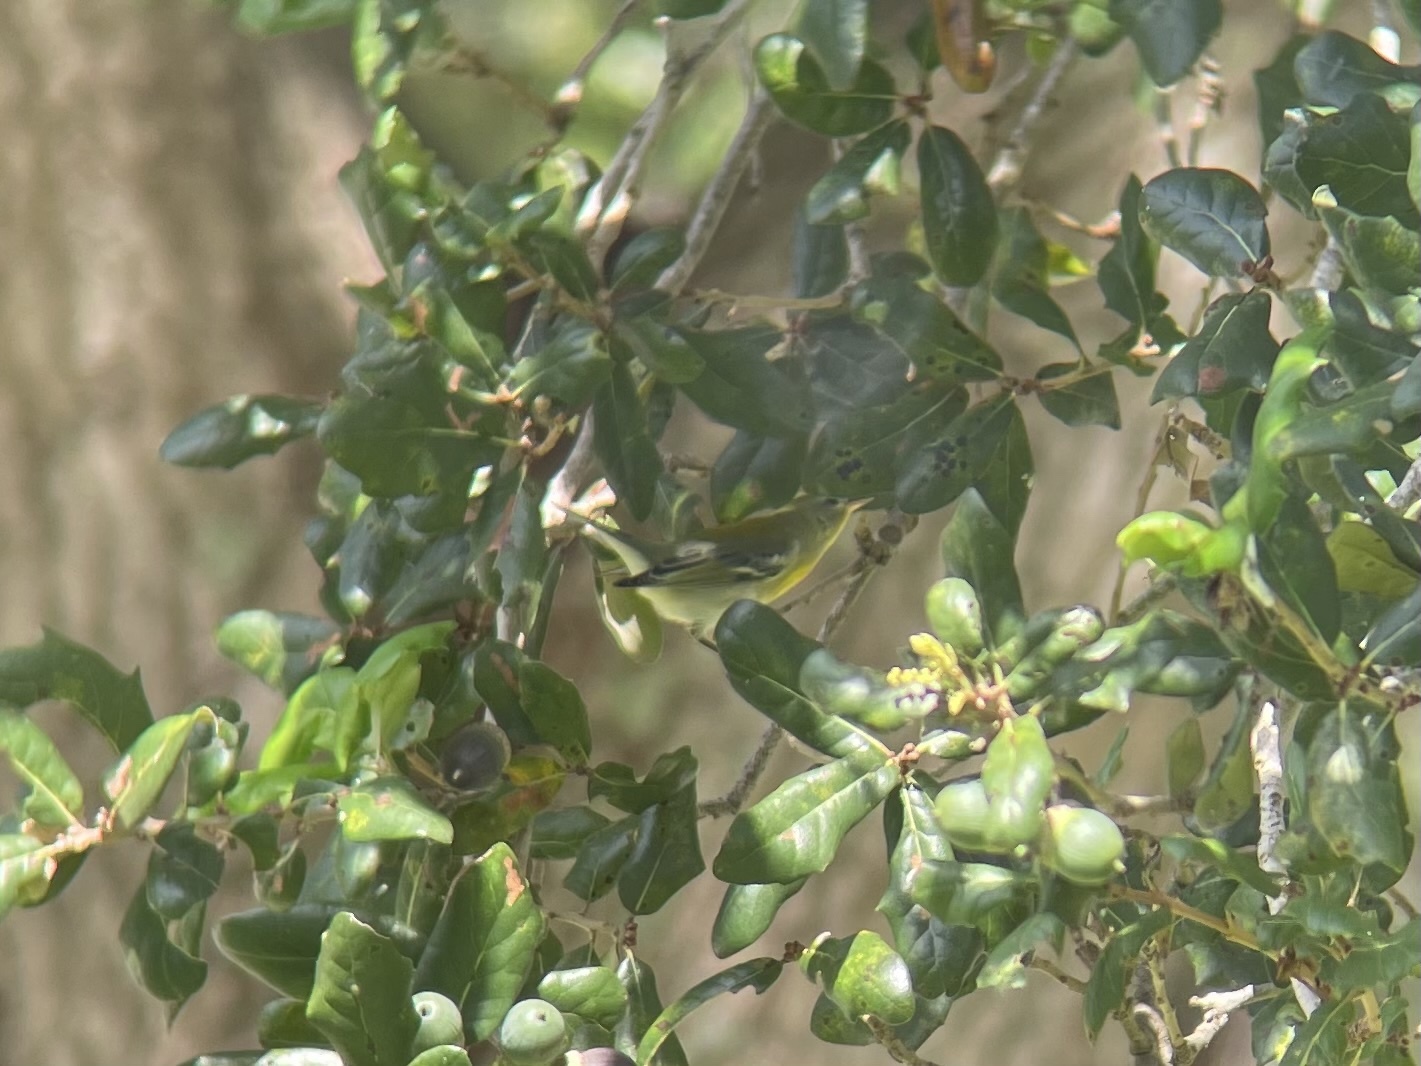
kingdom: Animalia
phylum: Chordata
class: Aves
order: Passeriformes
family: Parulidae
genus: Setophaga
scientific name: Setophaga americana
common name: Northern parula
